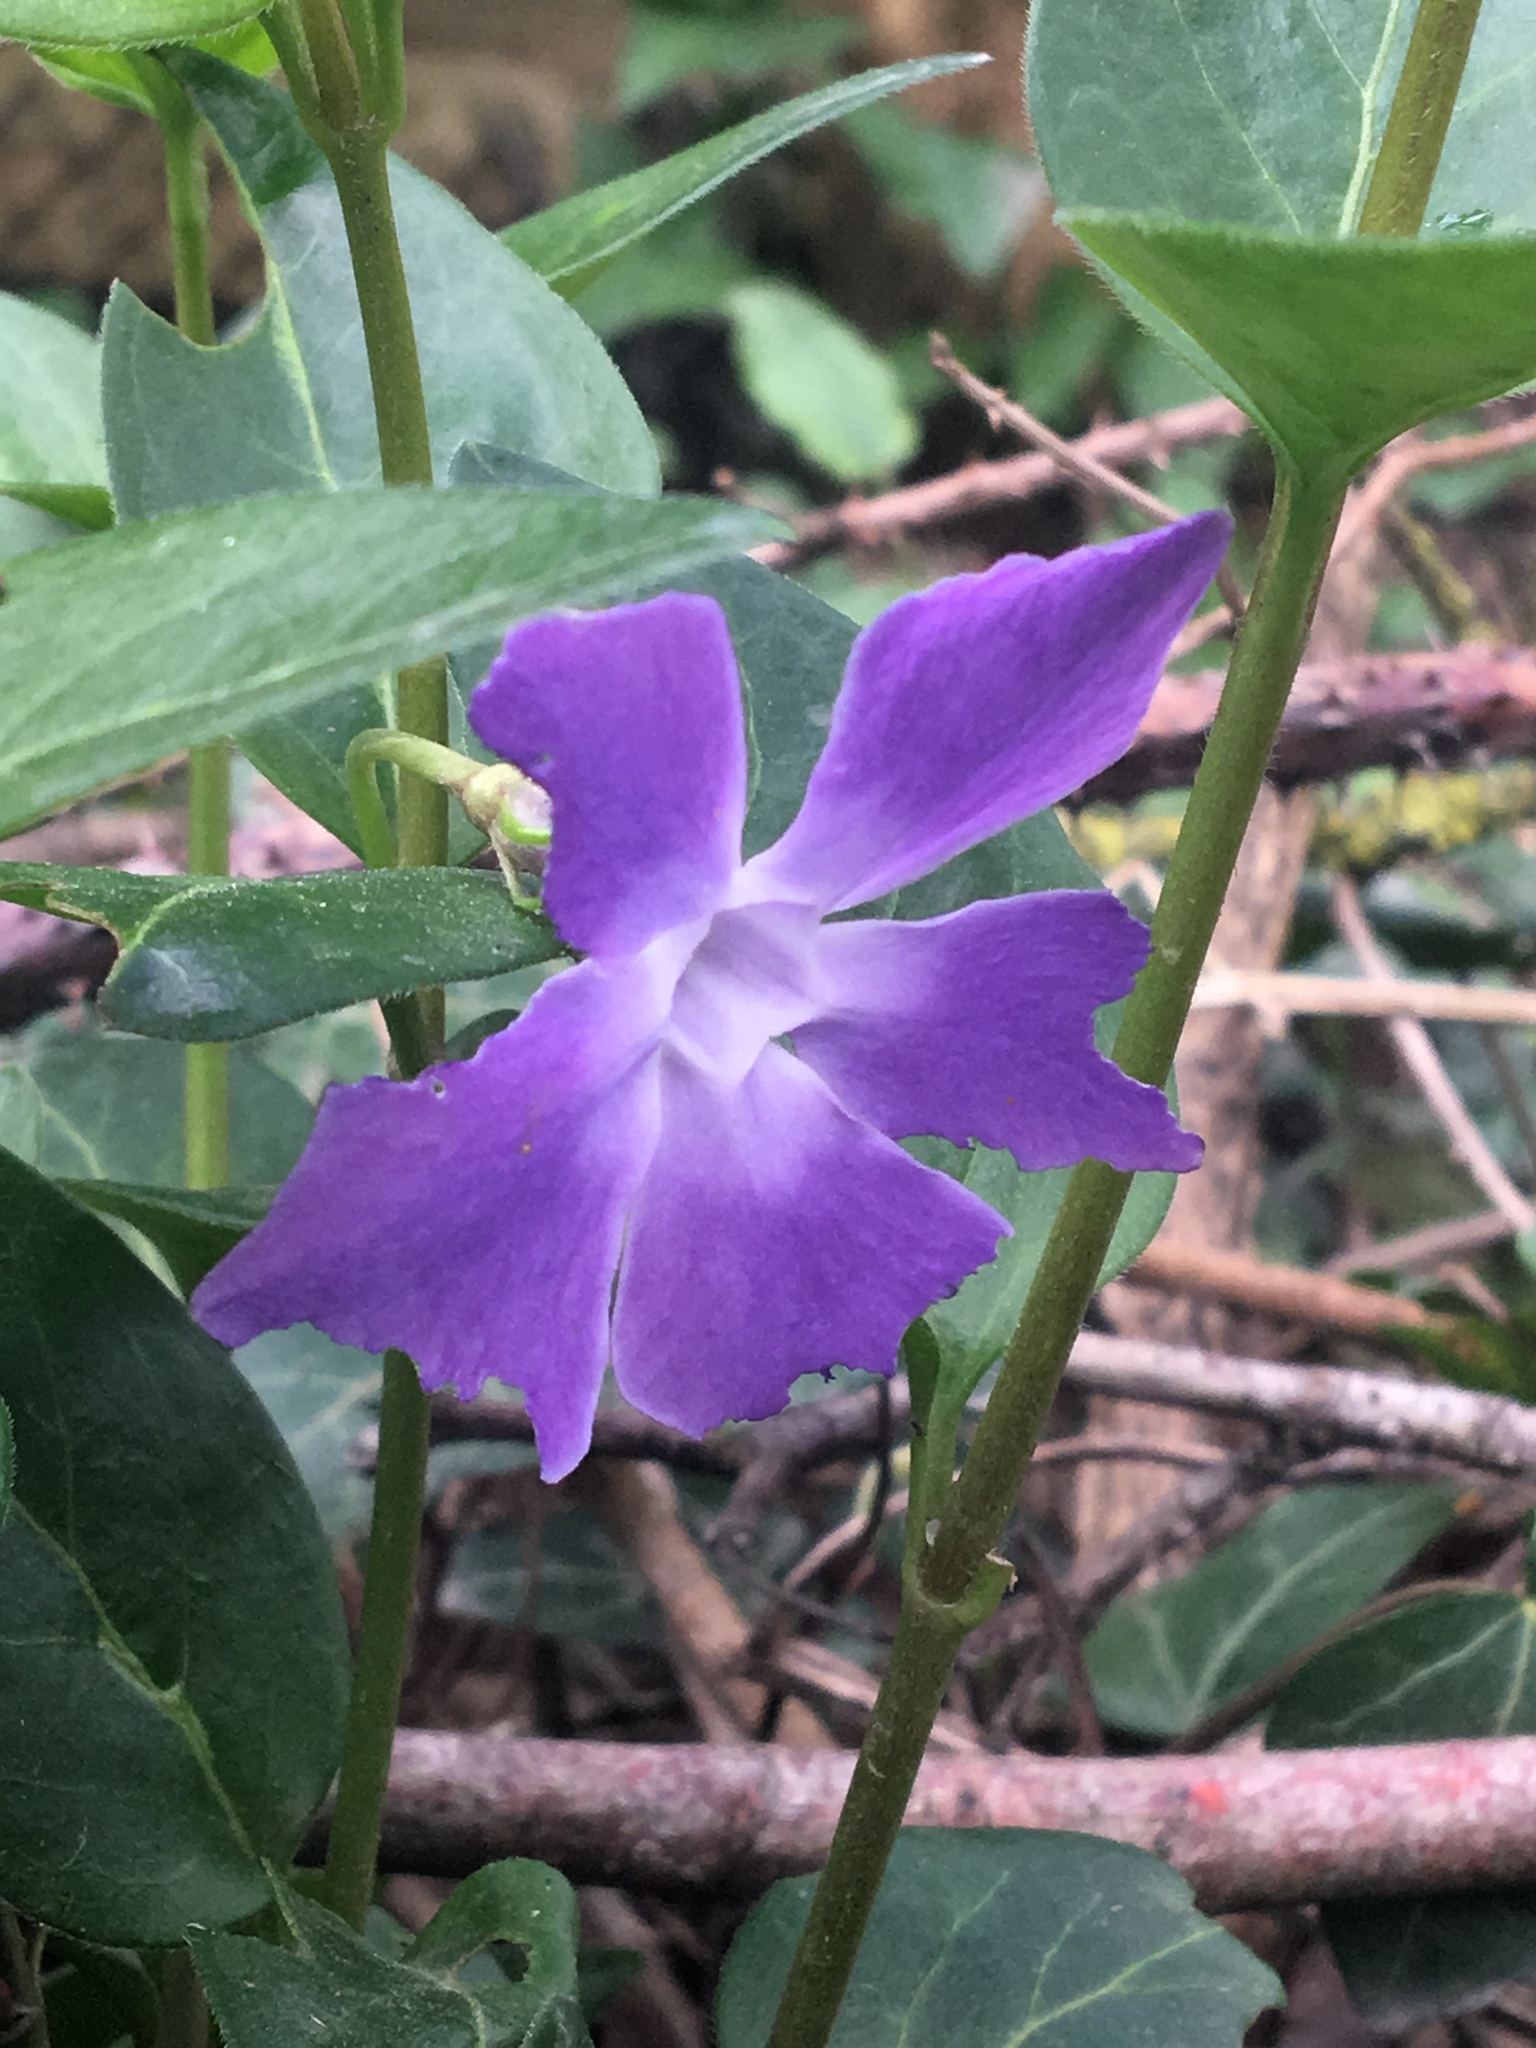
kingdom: Plantae
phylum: Tracheophyta
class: Magnoliopsida
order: Gentianales
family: Apocynaceae
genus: Vinca
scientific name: Vinca major
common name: Greater periwinkle
